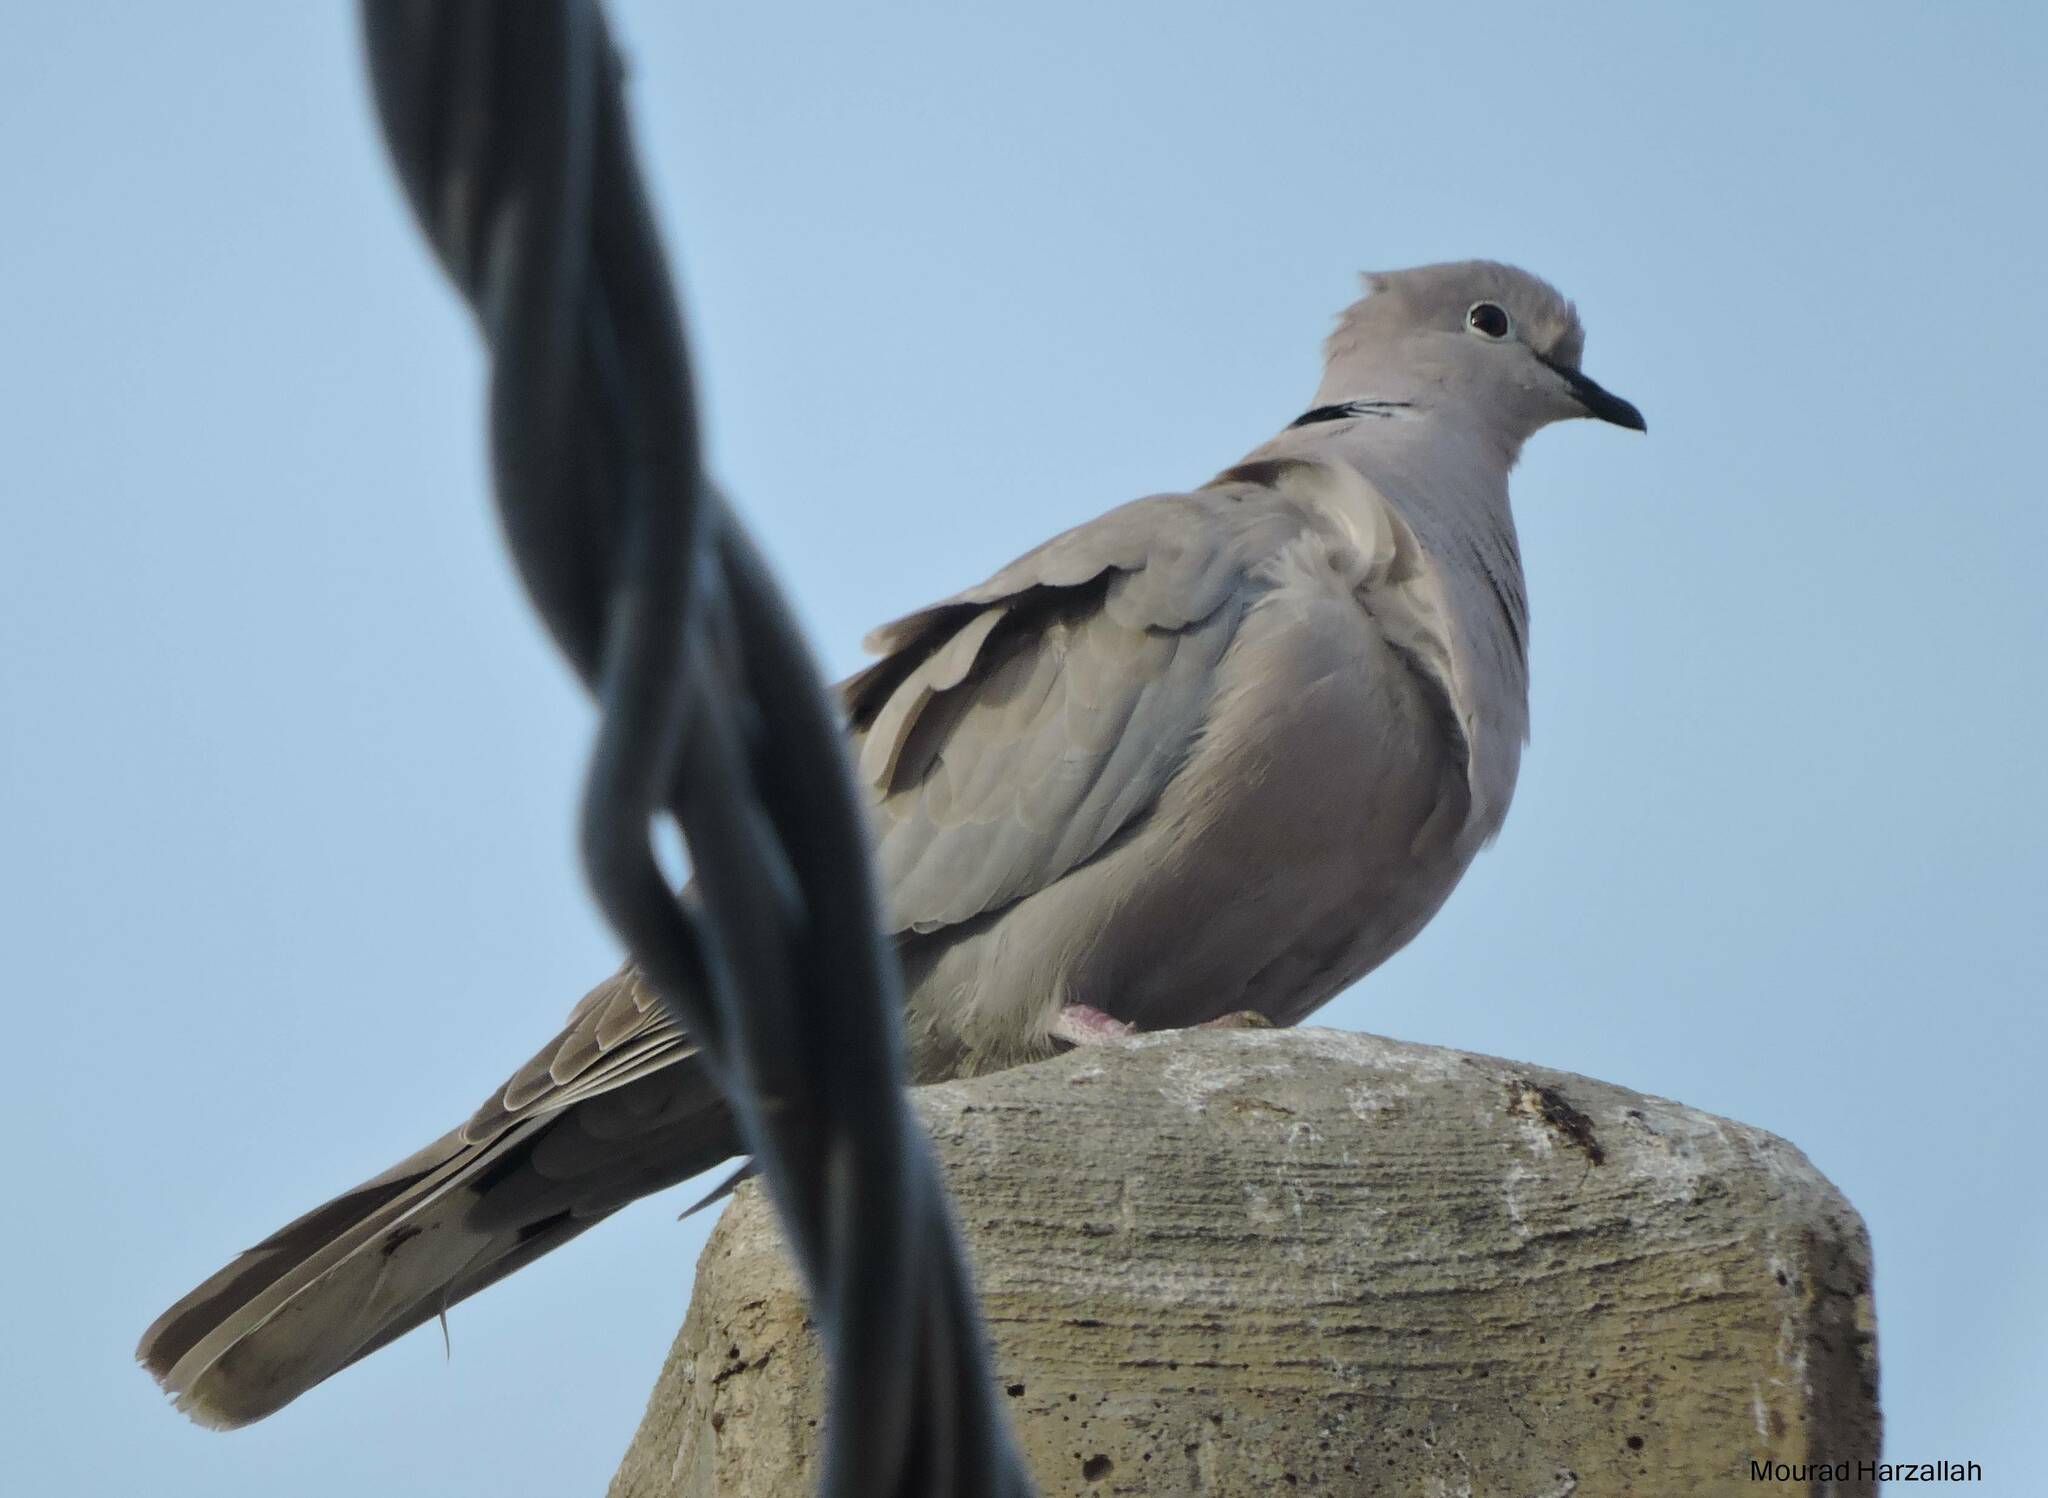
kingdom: Animalia
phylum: Chordata
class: Aves
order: Columbiformes
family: Columbidae
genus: Streptopelia
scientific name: Streptopelia decaocto
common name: Eurasian collared dove
